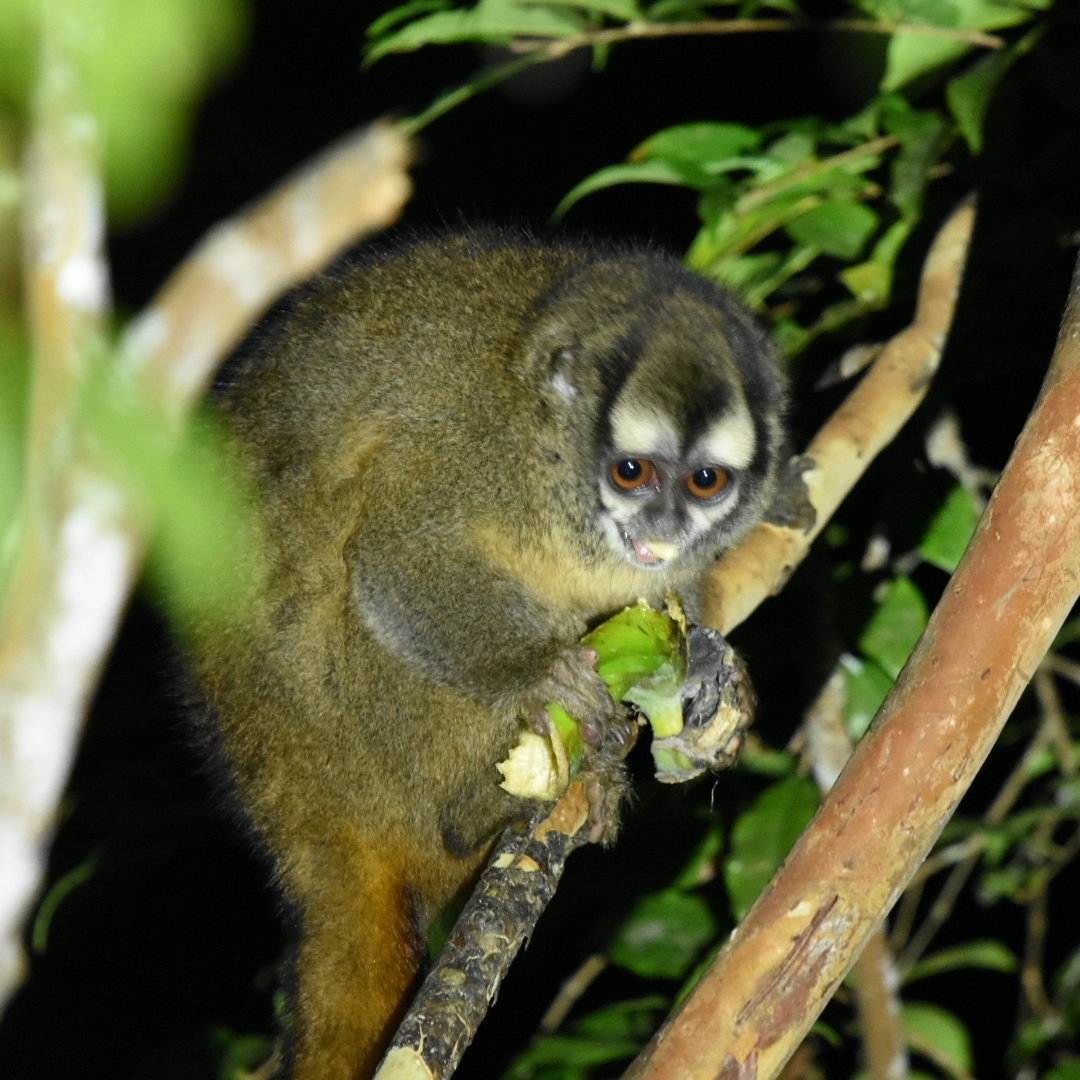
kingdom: Animalia
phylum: Chordata
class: Mammalia
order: Primates
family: Aotidae
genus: Aotus
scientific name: Aotus griseimembra
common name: Douroucouli a bras gris
